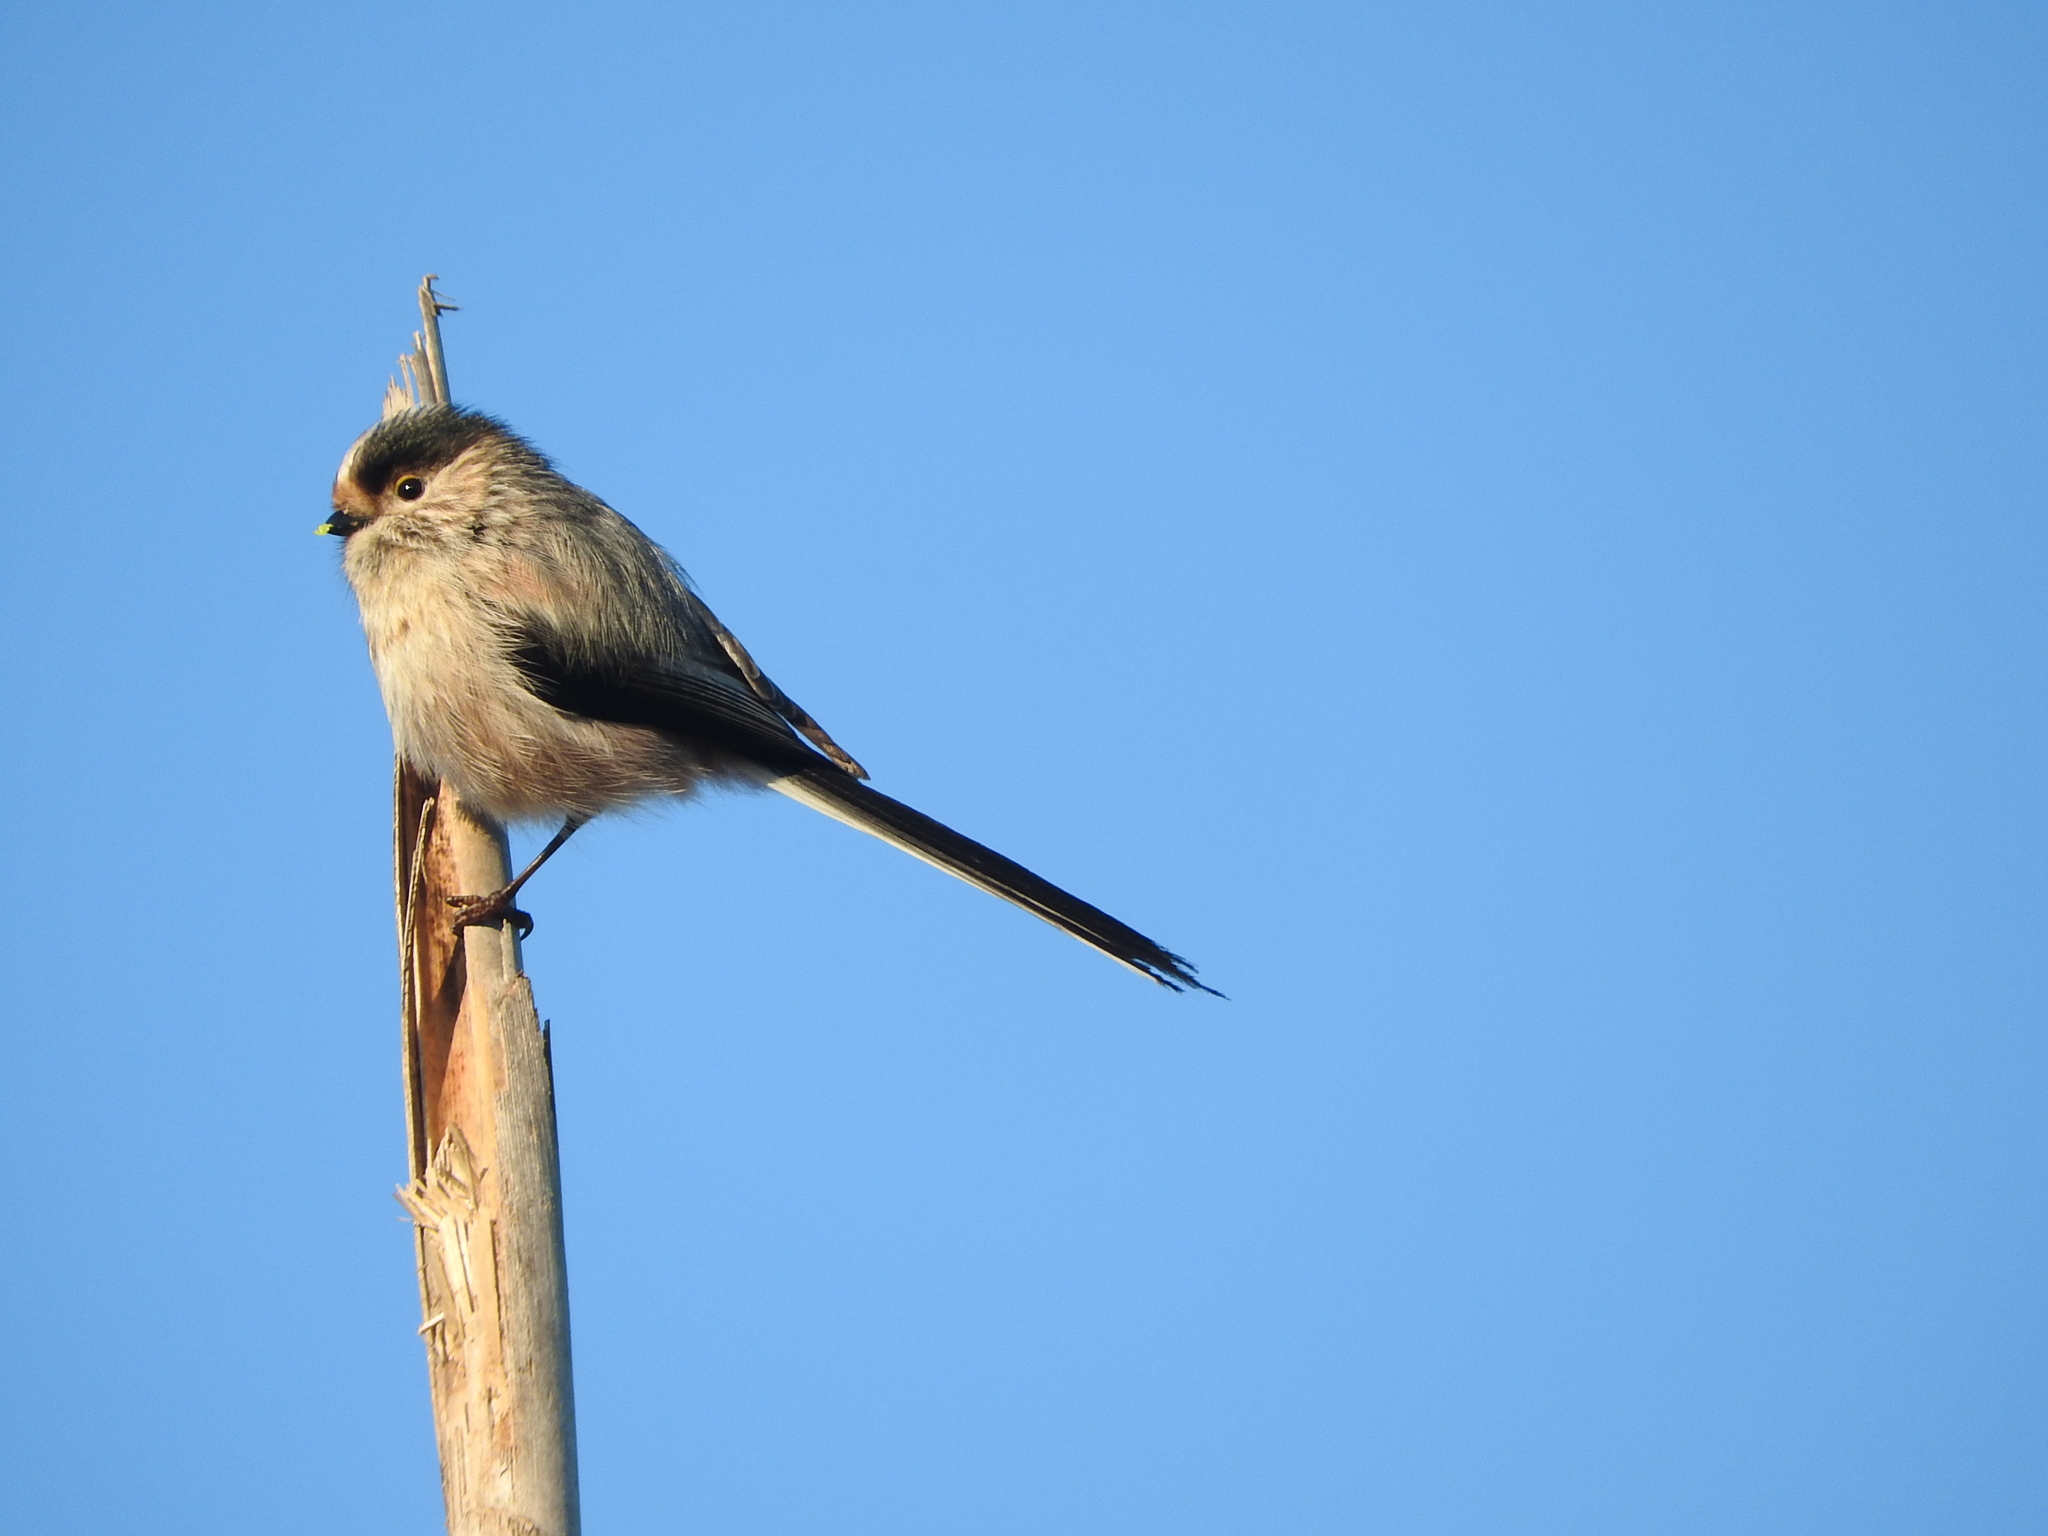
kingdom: Animalia
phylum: Chordata
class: Aves
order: Passeriformes
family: Aegithalidae
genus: Aegithalos
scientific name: Aegithalos caudatus
